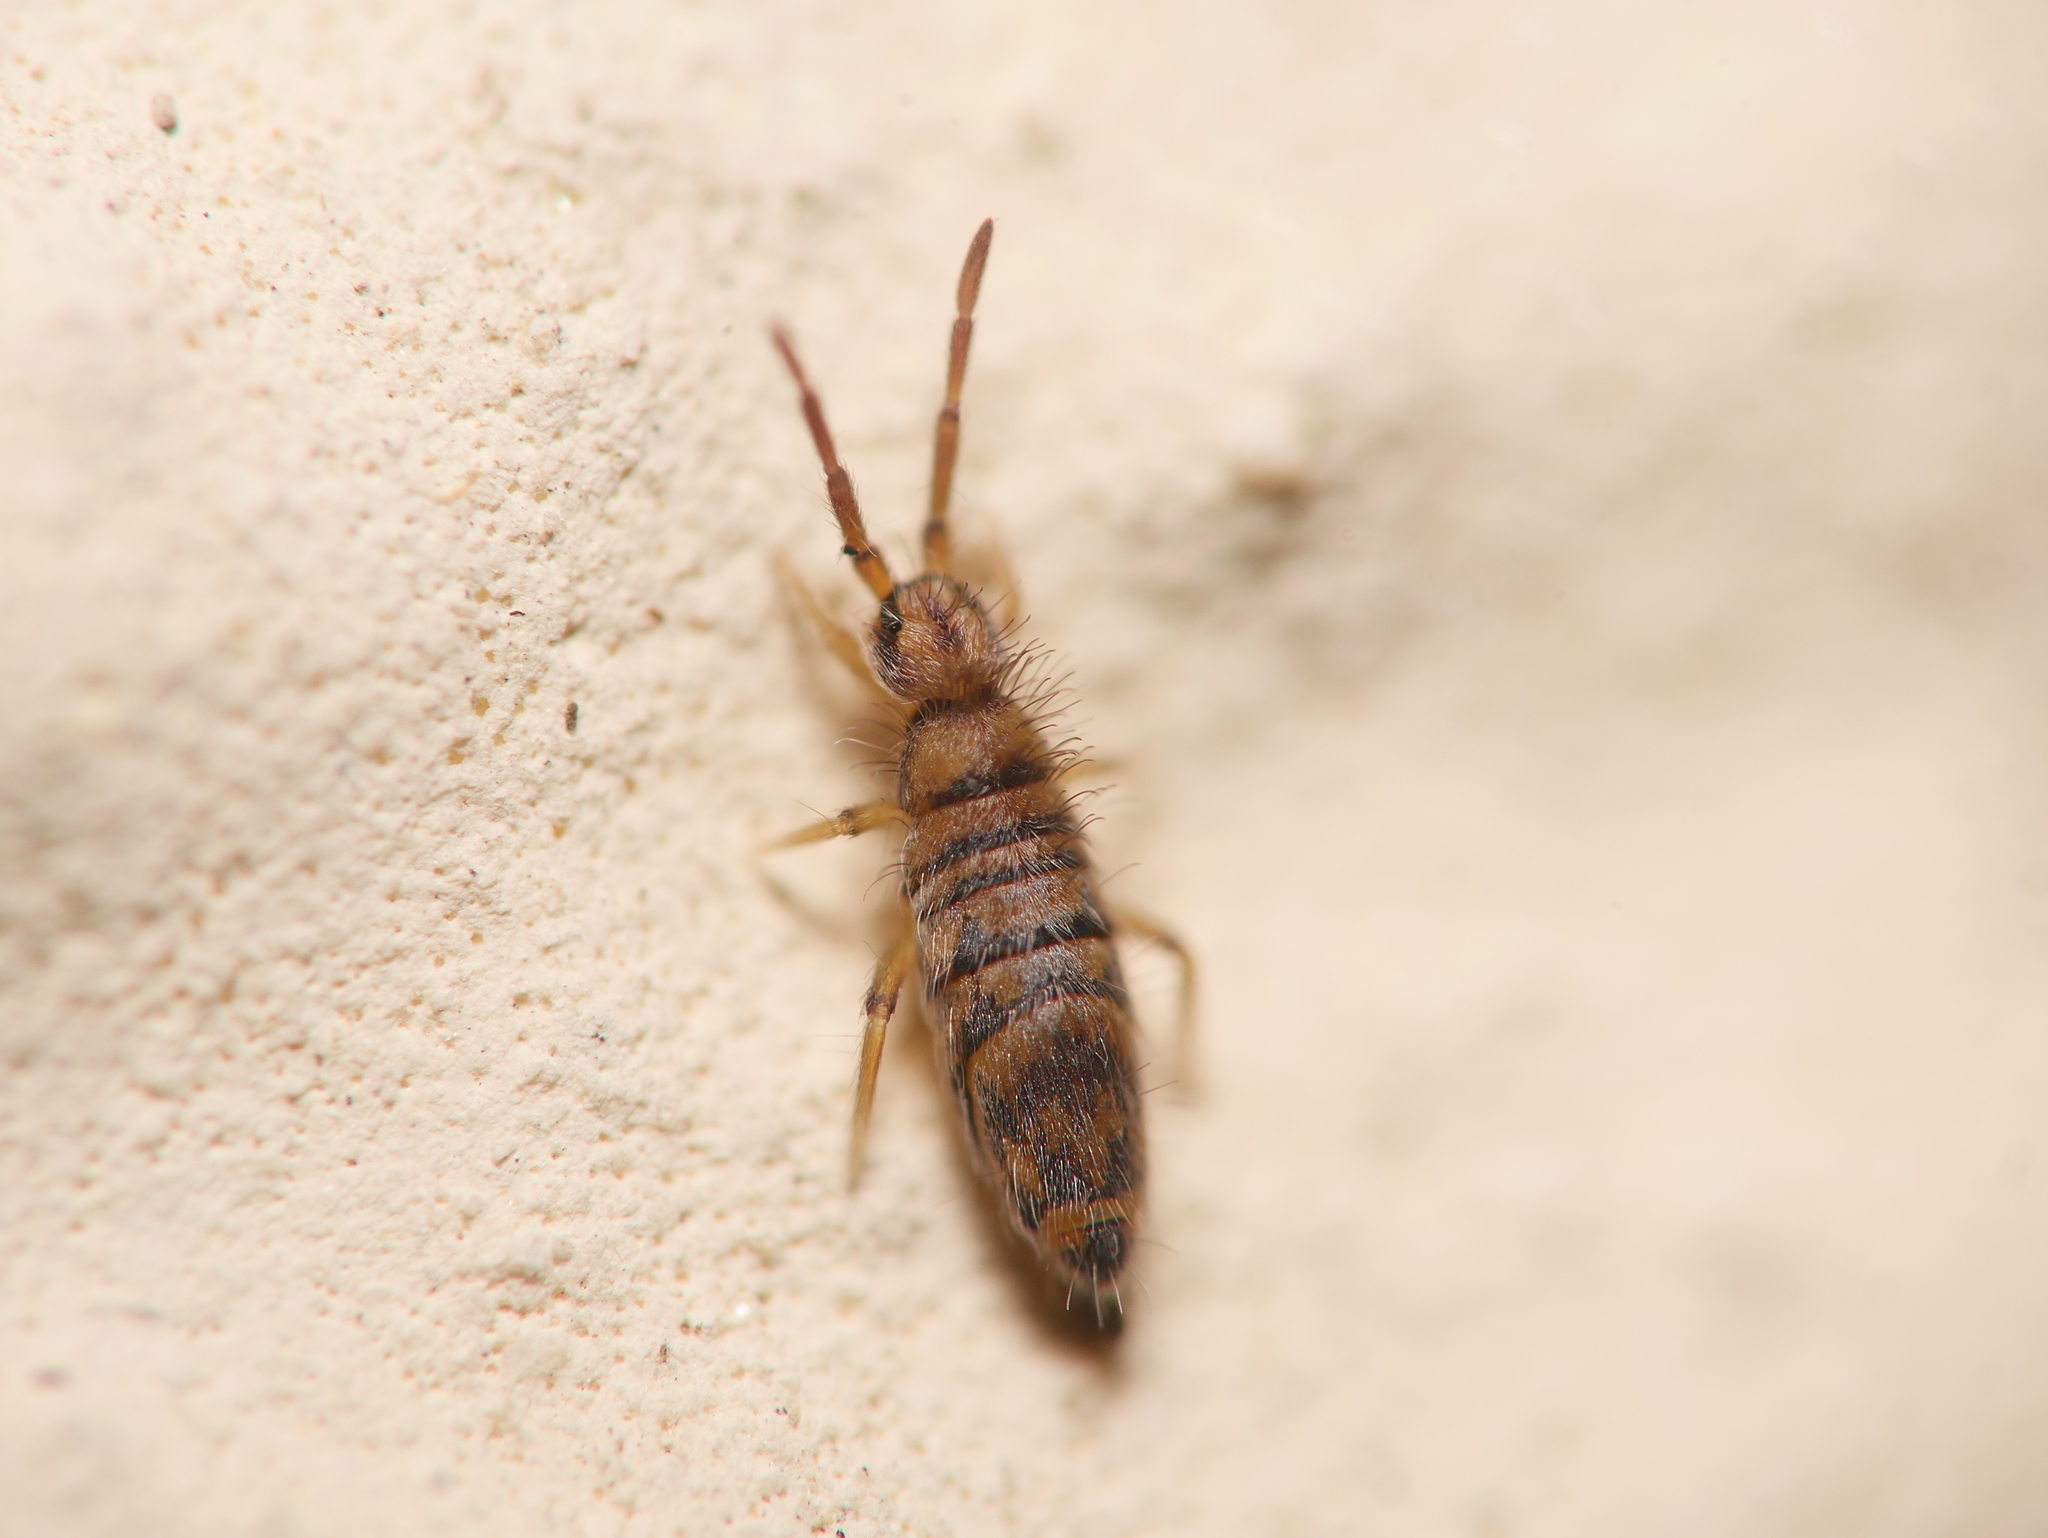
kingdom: Animalia
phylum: Arthropoda
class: Collembola
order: Entomobryomorpha
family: Entomobryidae
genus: Entomobrya
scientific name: Entomobrya multifasciata
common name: Springtail
